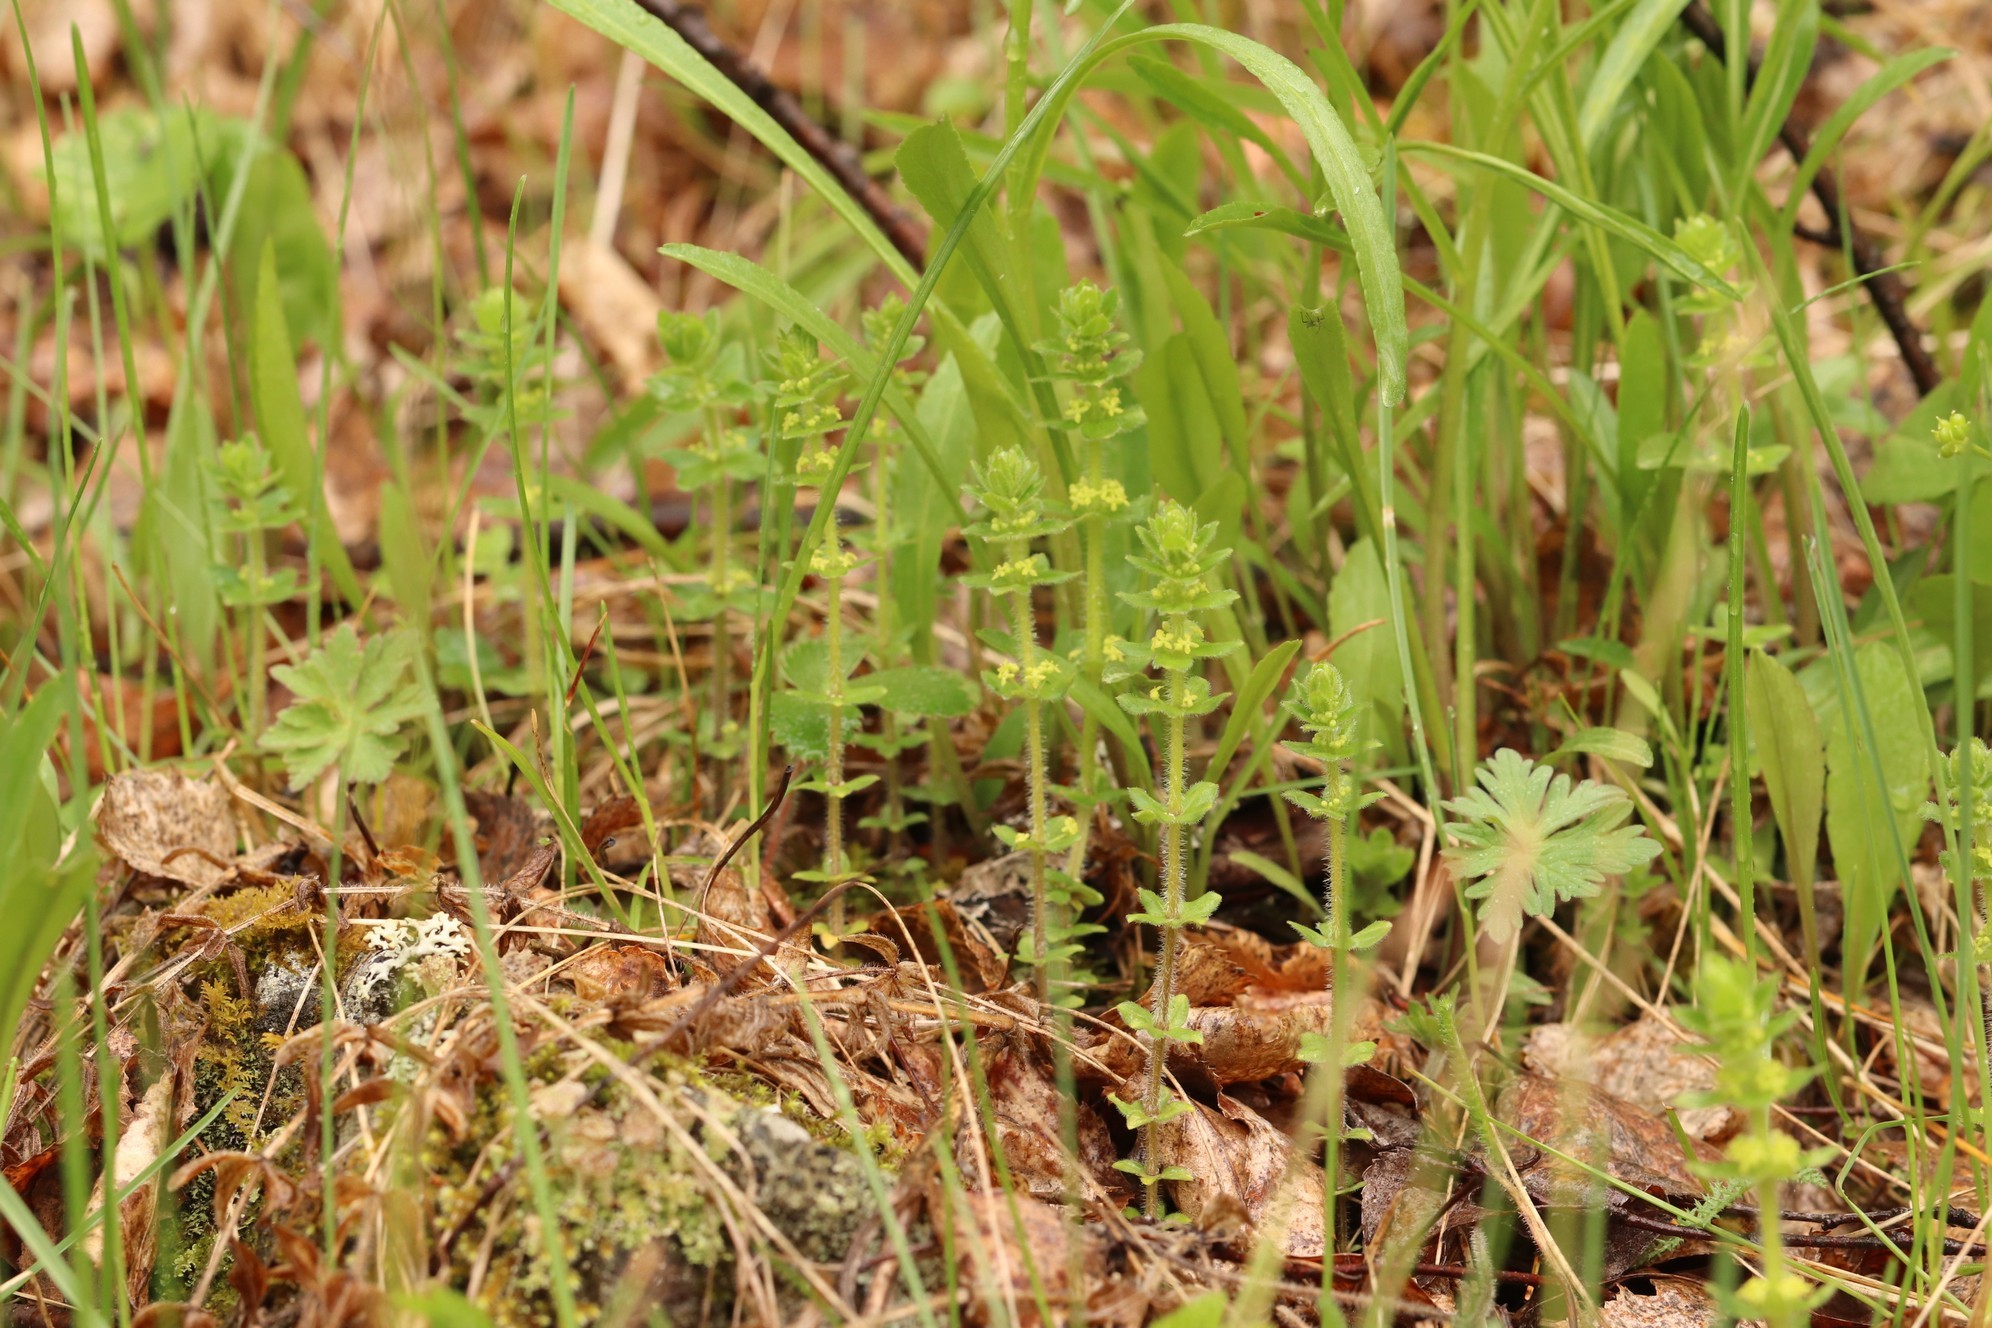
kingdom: Plantae
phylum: Tracheophyta
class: Magnoliopsida
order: Gentianales
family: Rubiaceae
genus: Cruciata
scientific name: Cruciata glabra
